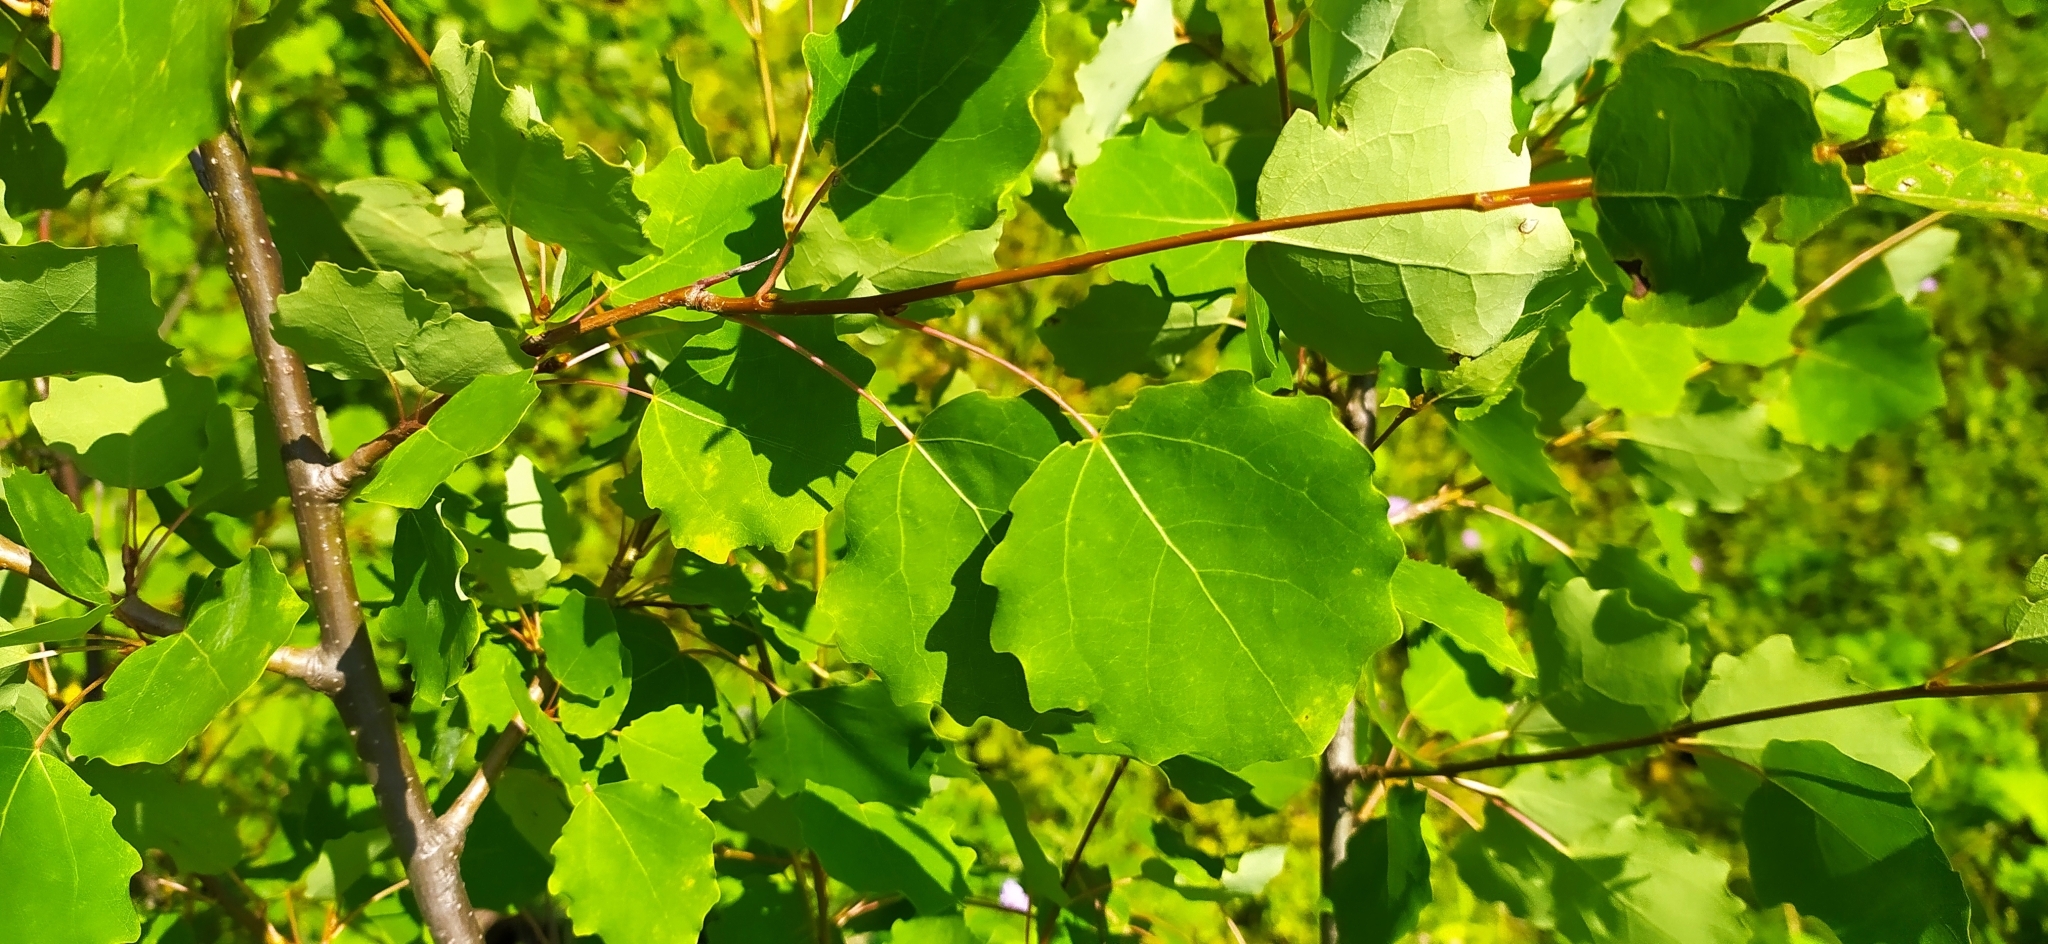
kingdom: Plantae
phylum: Tracheophyta
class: Magnoliopsida
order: Malpighiales
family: Salicaceae
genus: Populus
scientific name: Populus tremula
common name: European aspen
